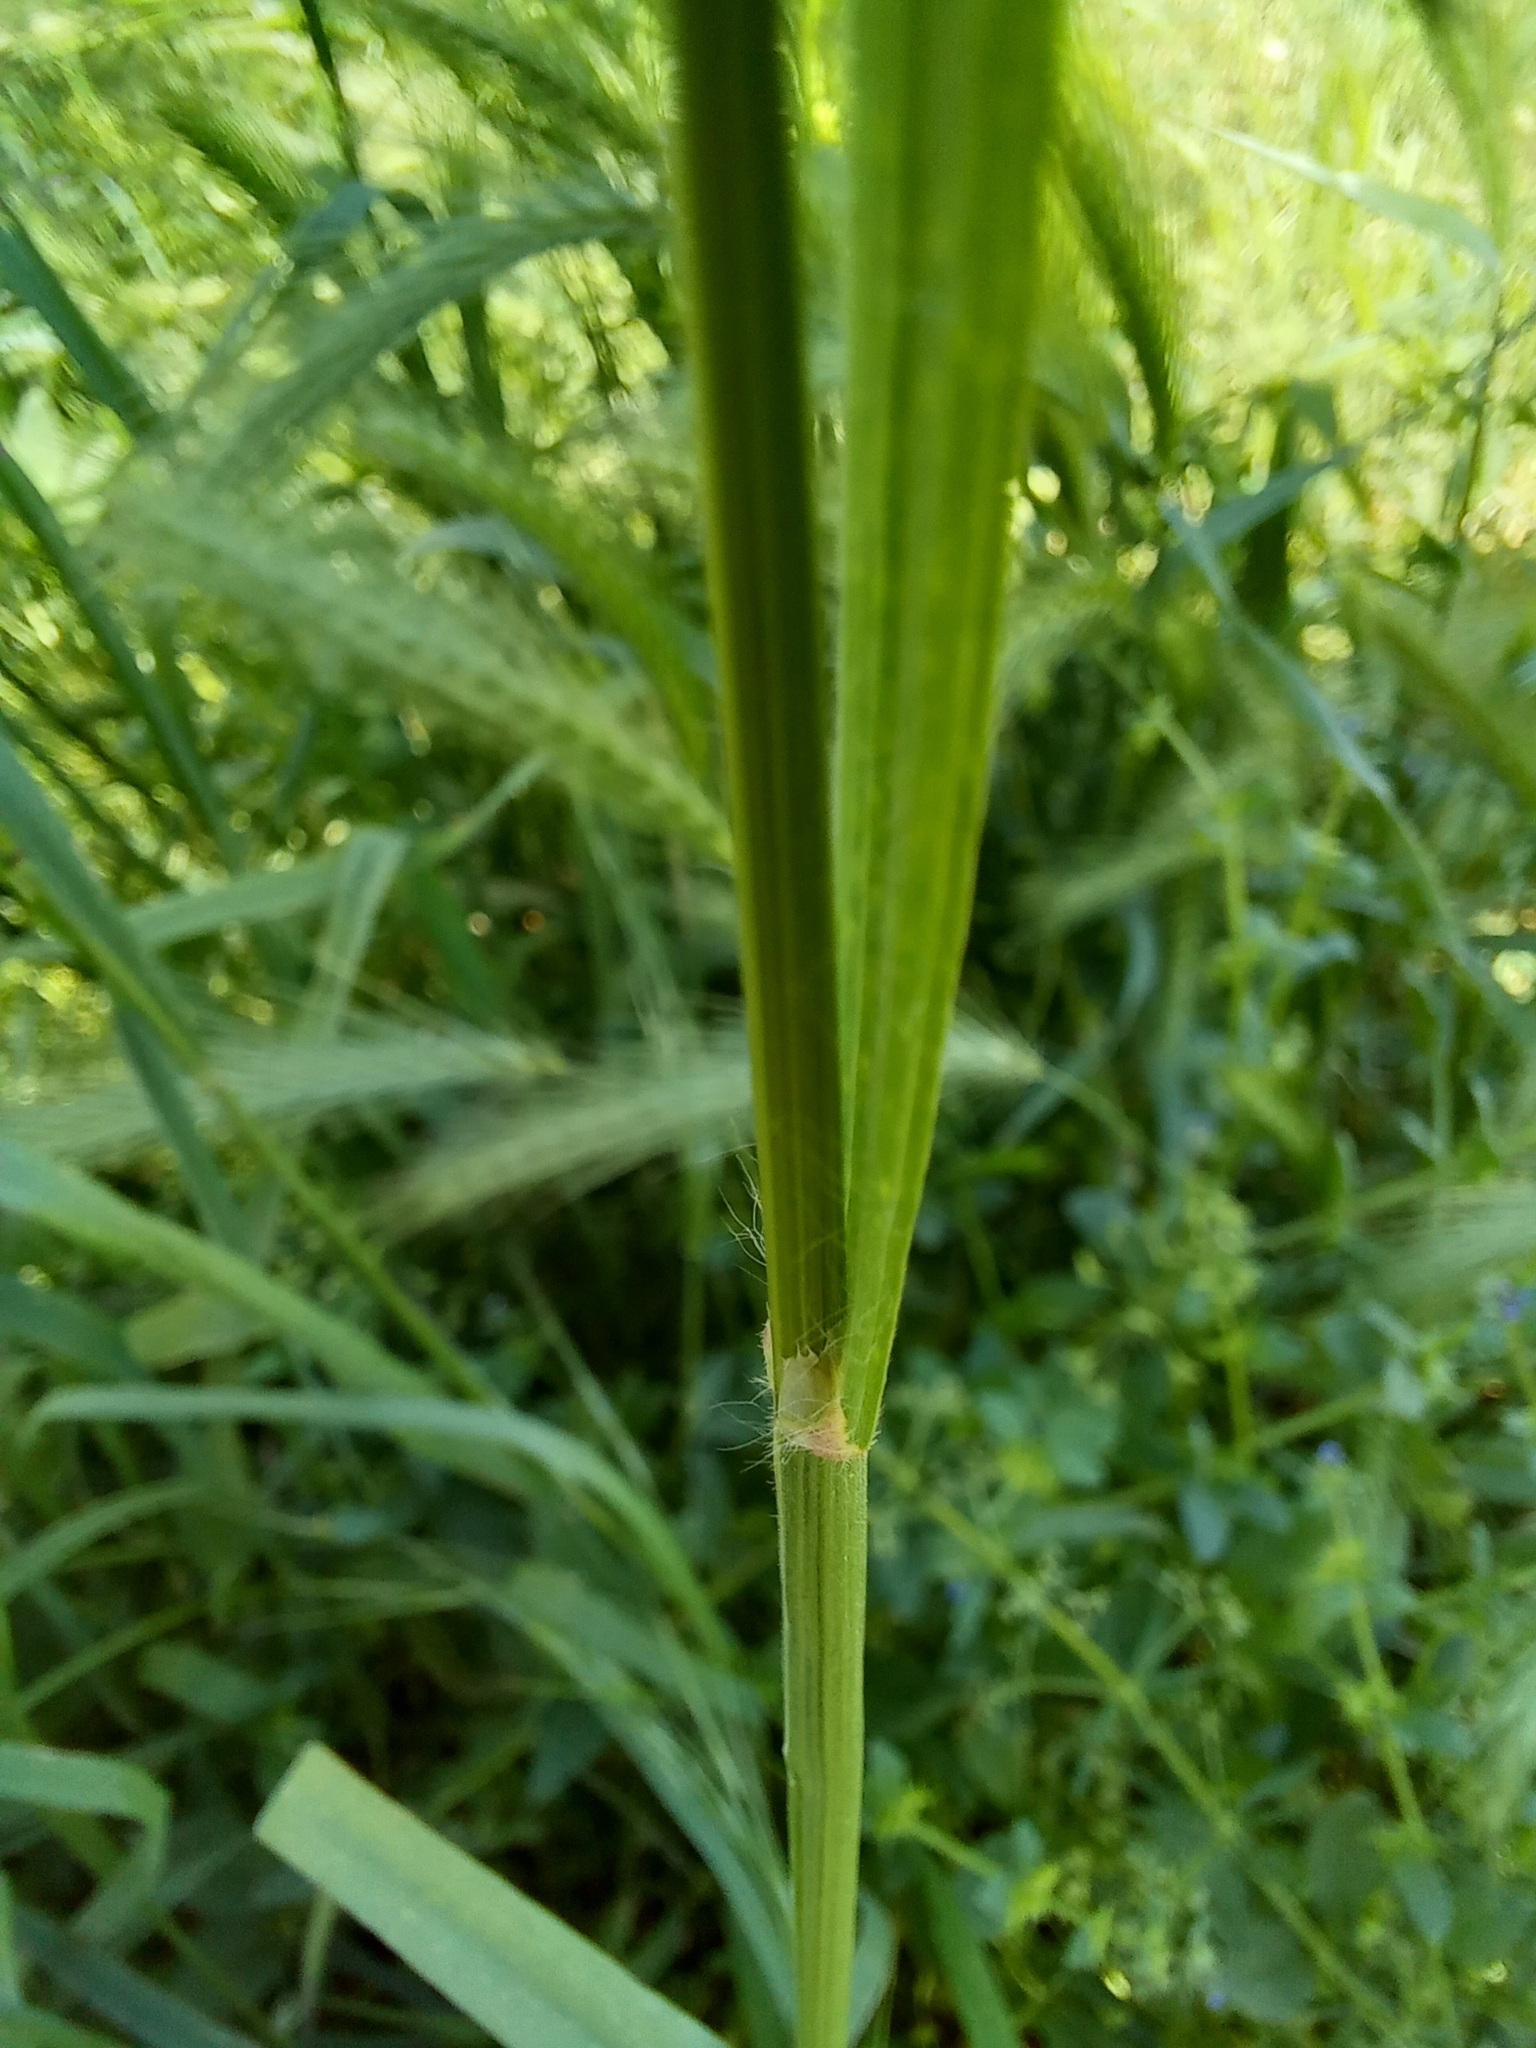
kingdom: Plantae
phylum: Tracheophyta
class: Liliopsida
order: Poales
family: Poaceae
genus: Bromus
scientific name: Bromus tectorum
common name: Cheatgrass
